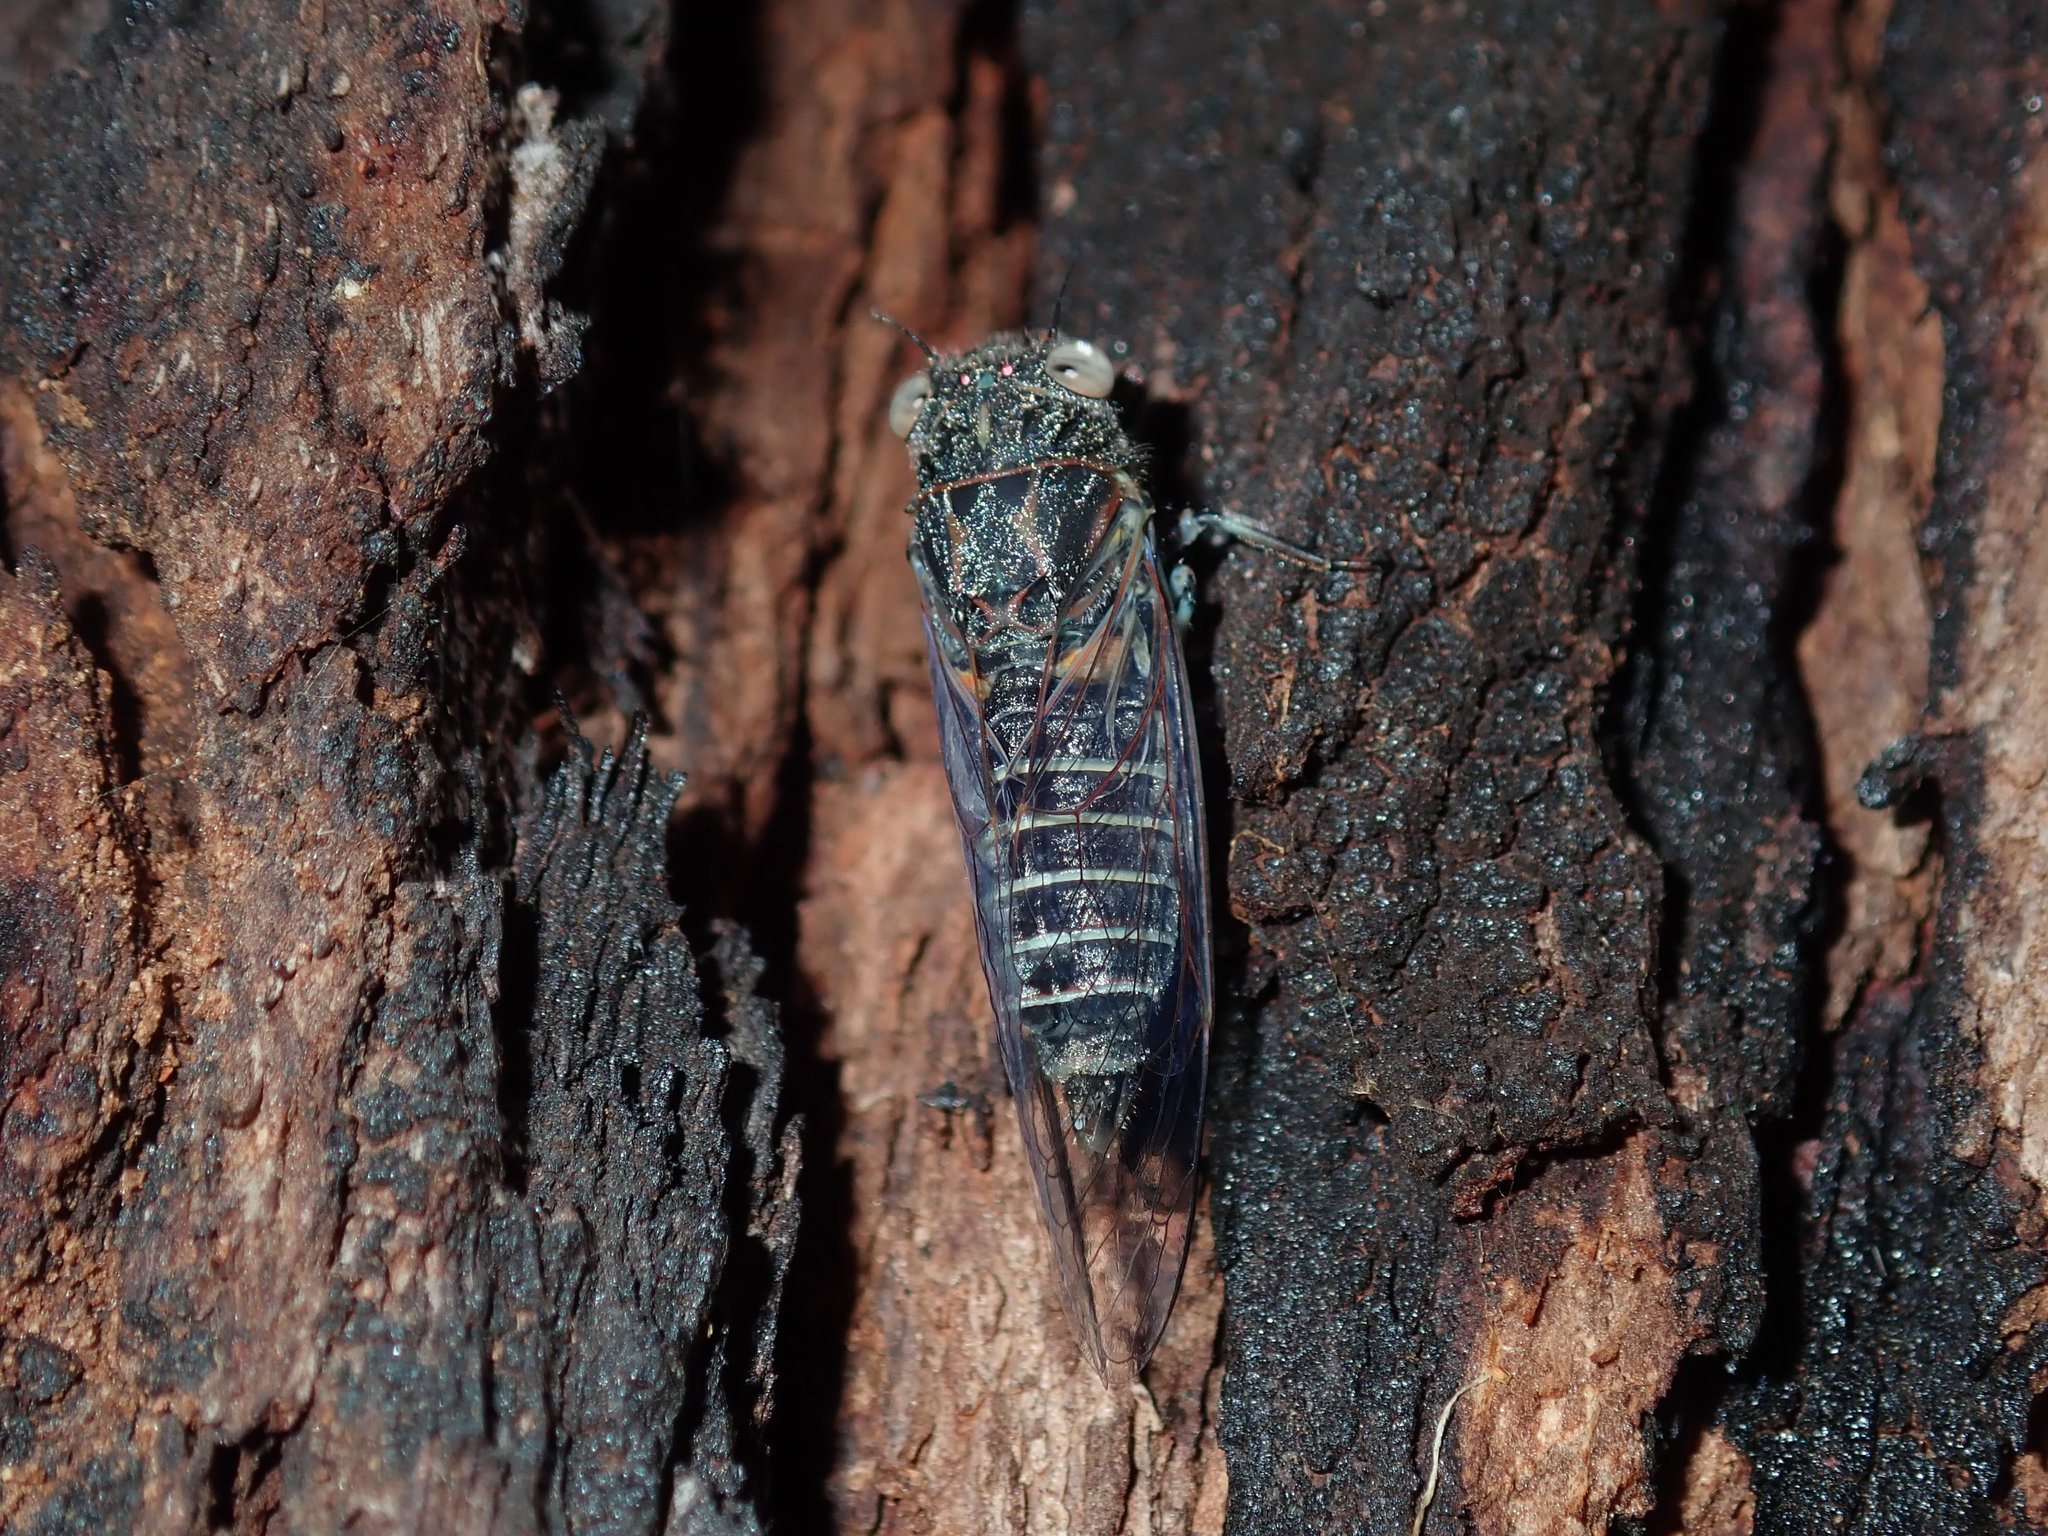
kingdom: Animalia
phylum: Arthropoda
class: Insecta
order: Hemiptera
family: Cicadidae
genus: Atrapsalta
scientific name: Atrapsalta fuscata
